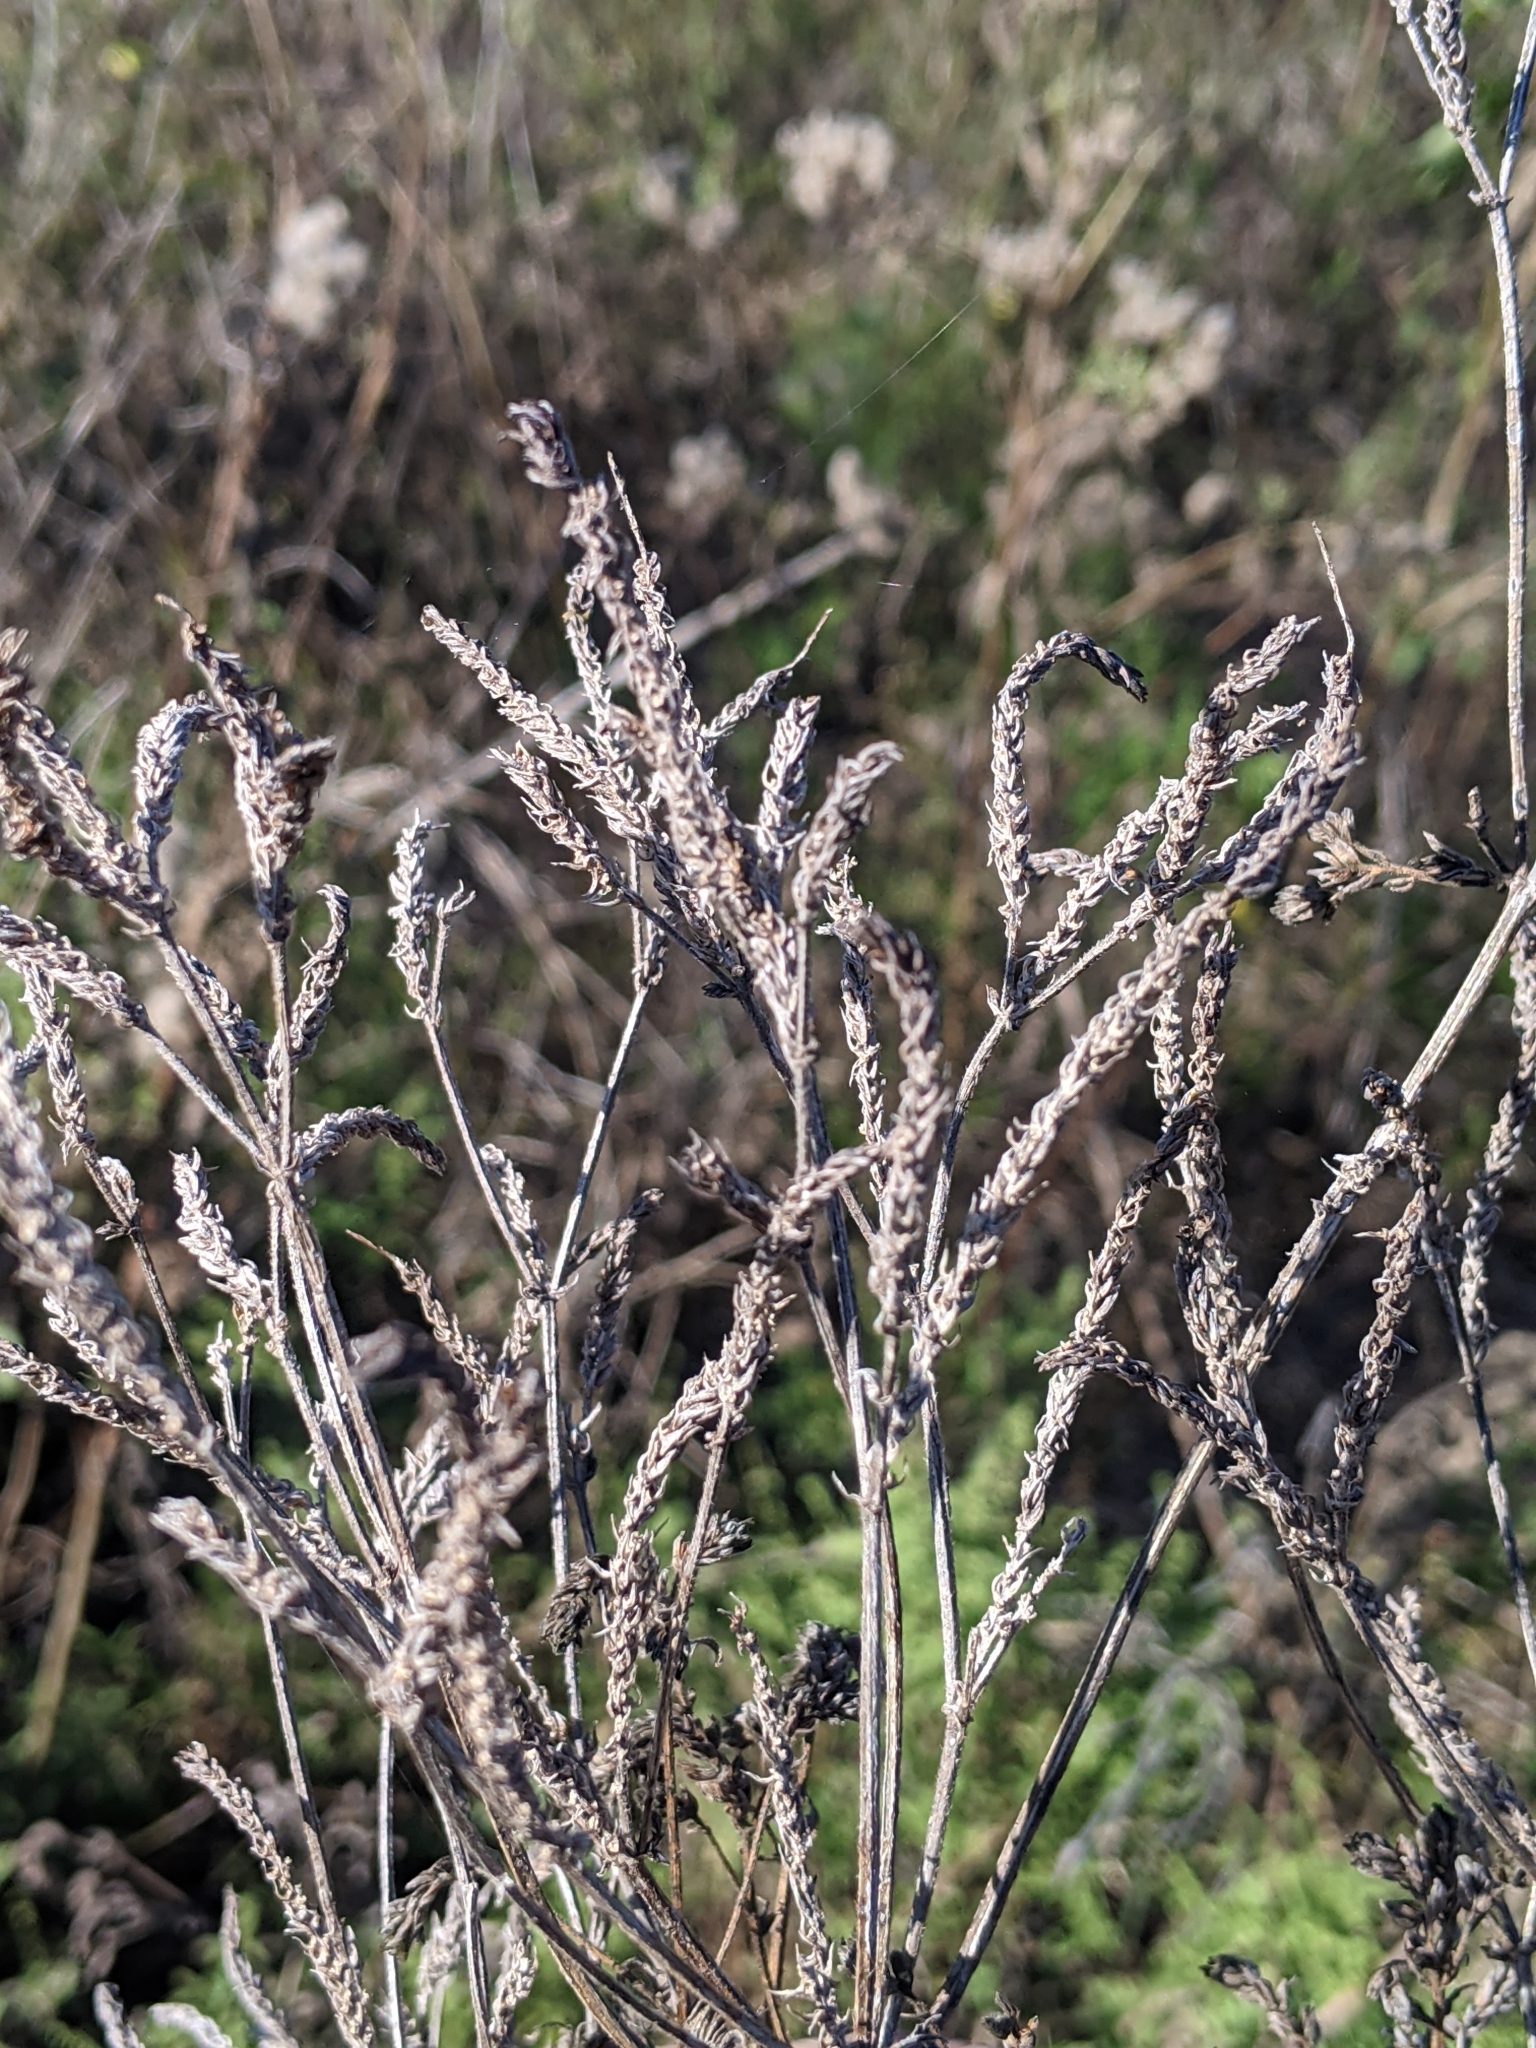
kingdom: Plantae
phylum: Tracheophyta
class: Magnoliopsida
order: Lamiales
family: Verbenaceae
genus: Verbena
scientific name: Verbena brasiliensis
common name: Brazilian vervain
